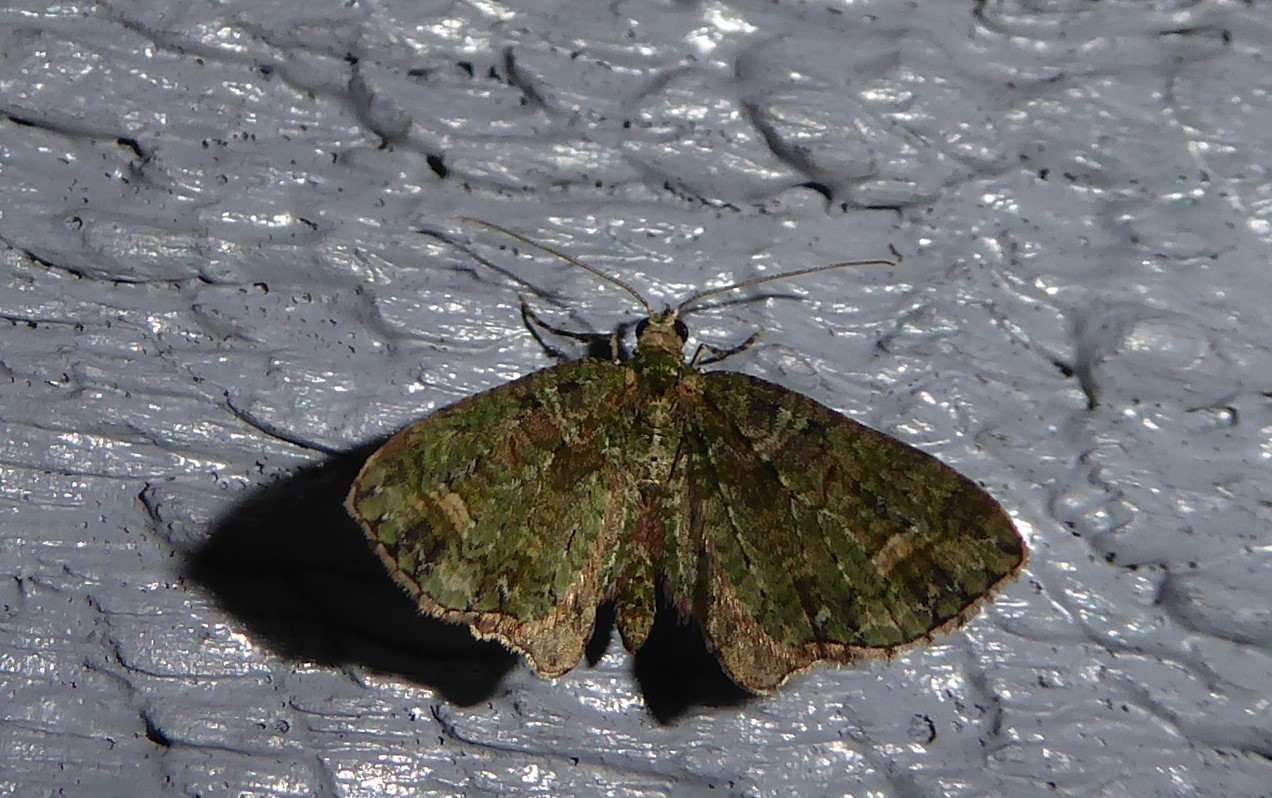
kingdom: Animalia
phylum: Arthropoda
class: Insecta
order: Lepidoptera
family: Geometridae
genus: Idaea
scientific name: Idaea mutanda
